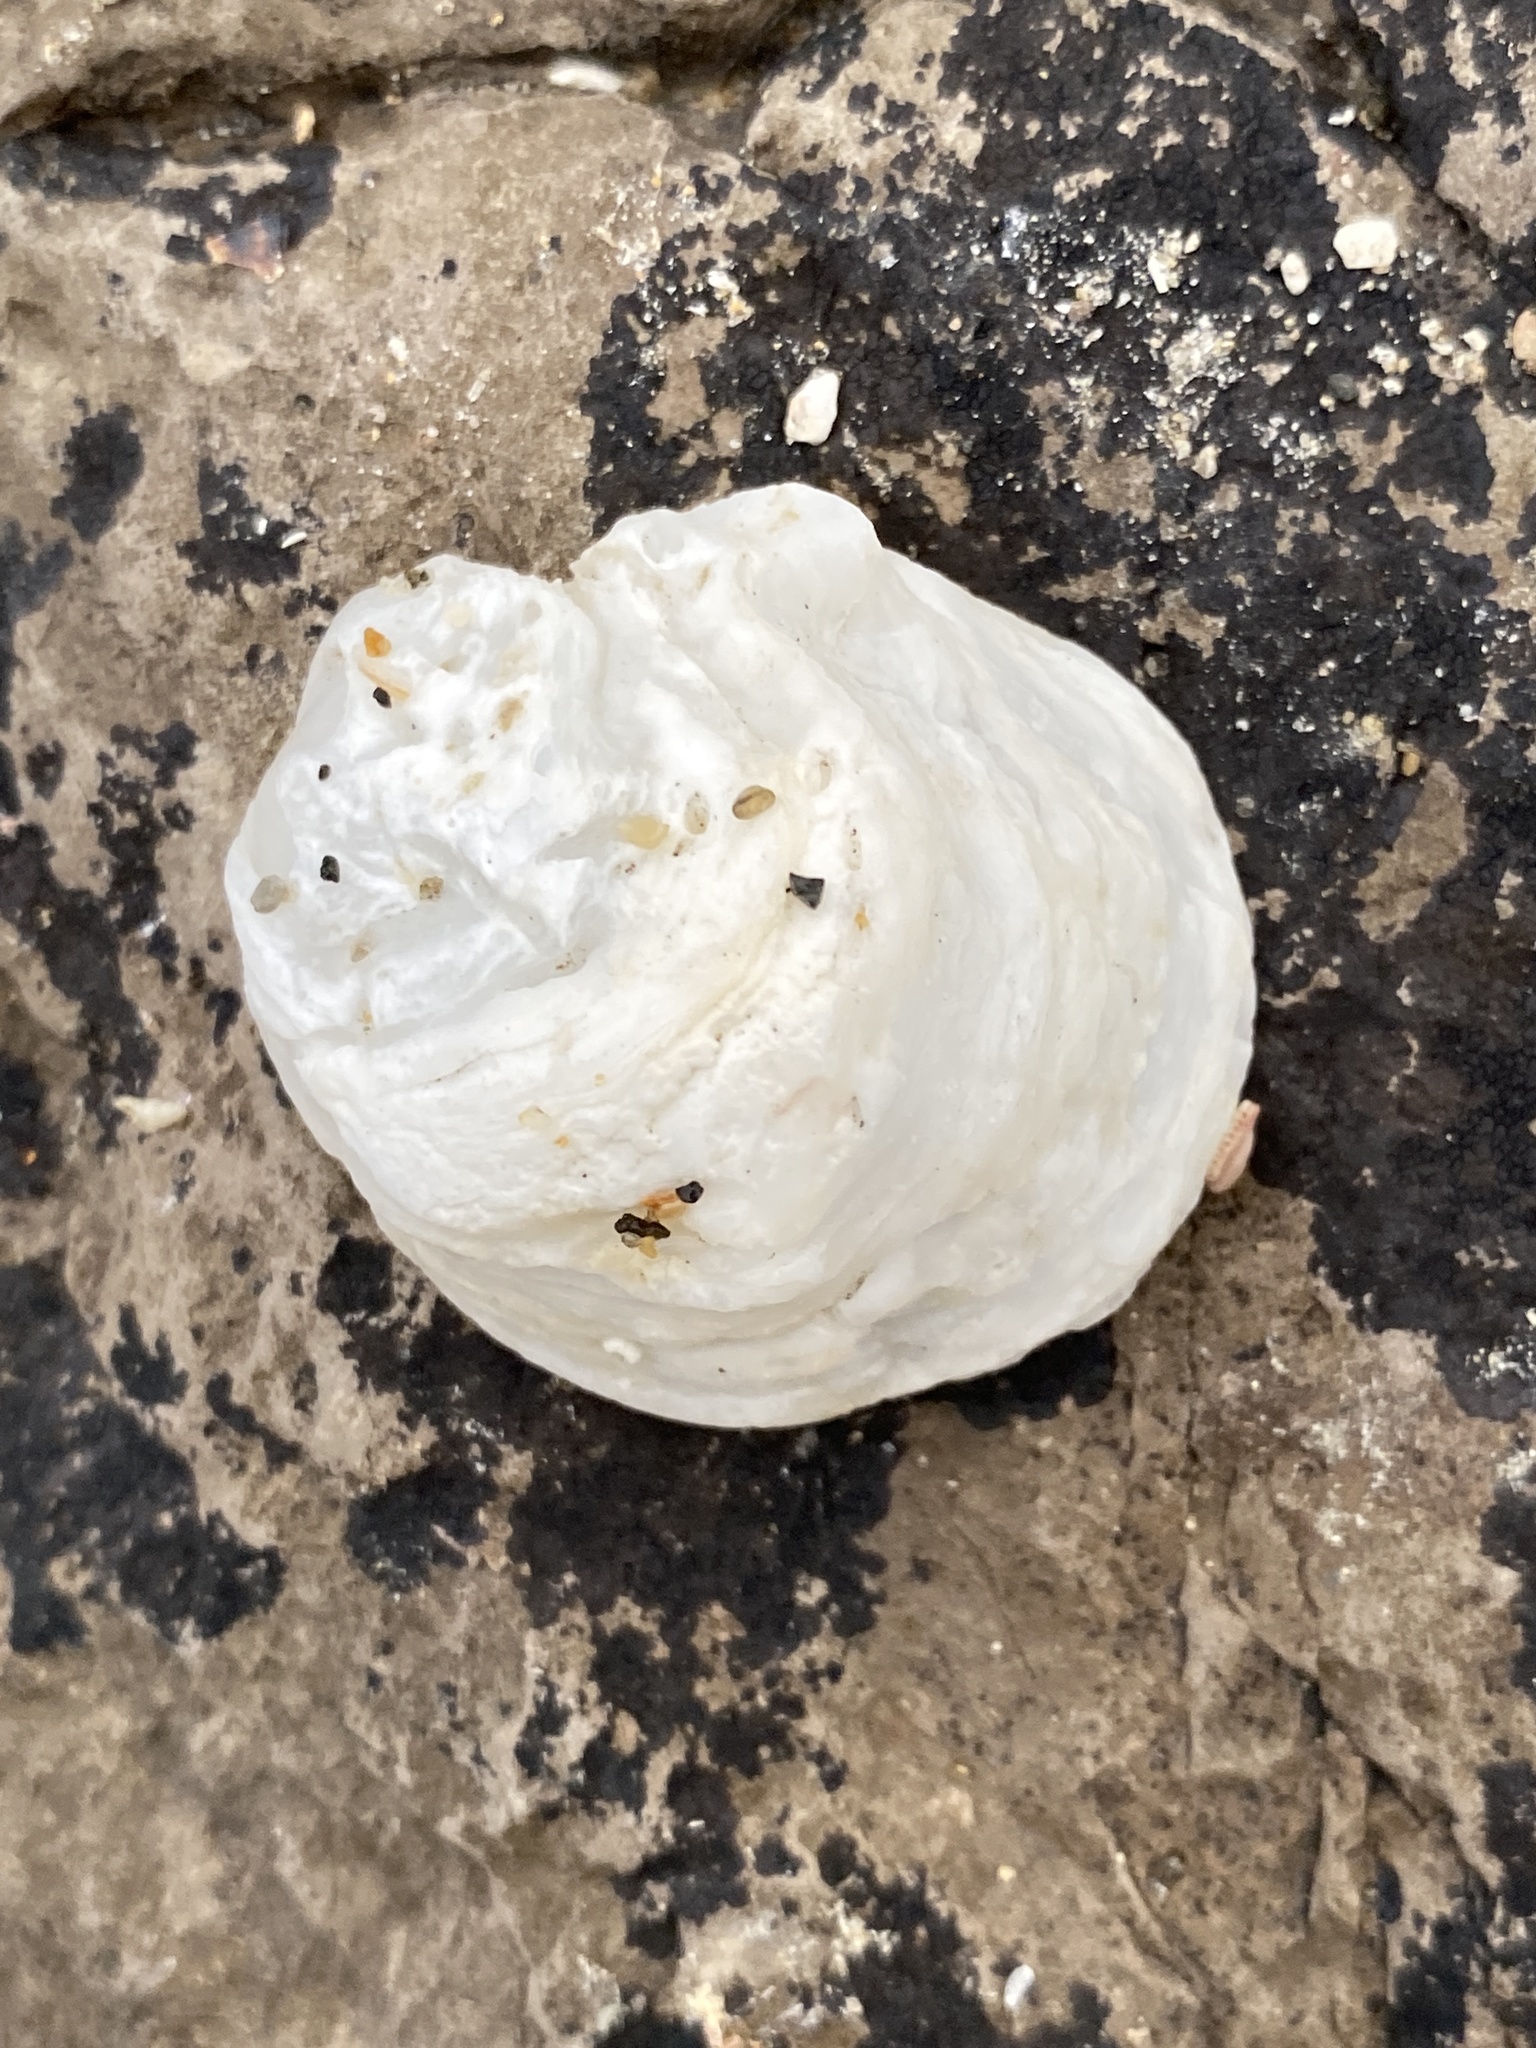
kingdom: Animalia
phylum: Mollusca
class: Bivalvia
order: Ostreida
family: Ostreidae
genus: Ostrea
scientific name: Ostrea chilensis
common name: Chilean oyster
